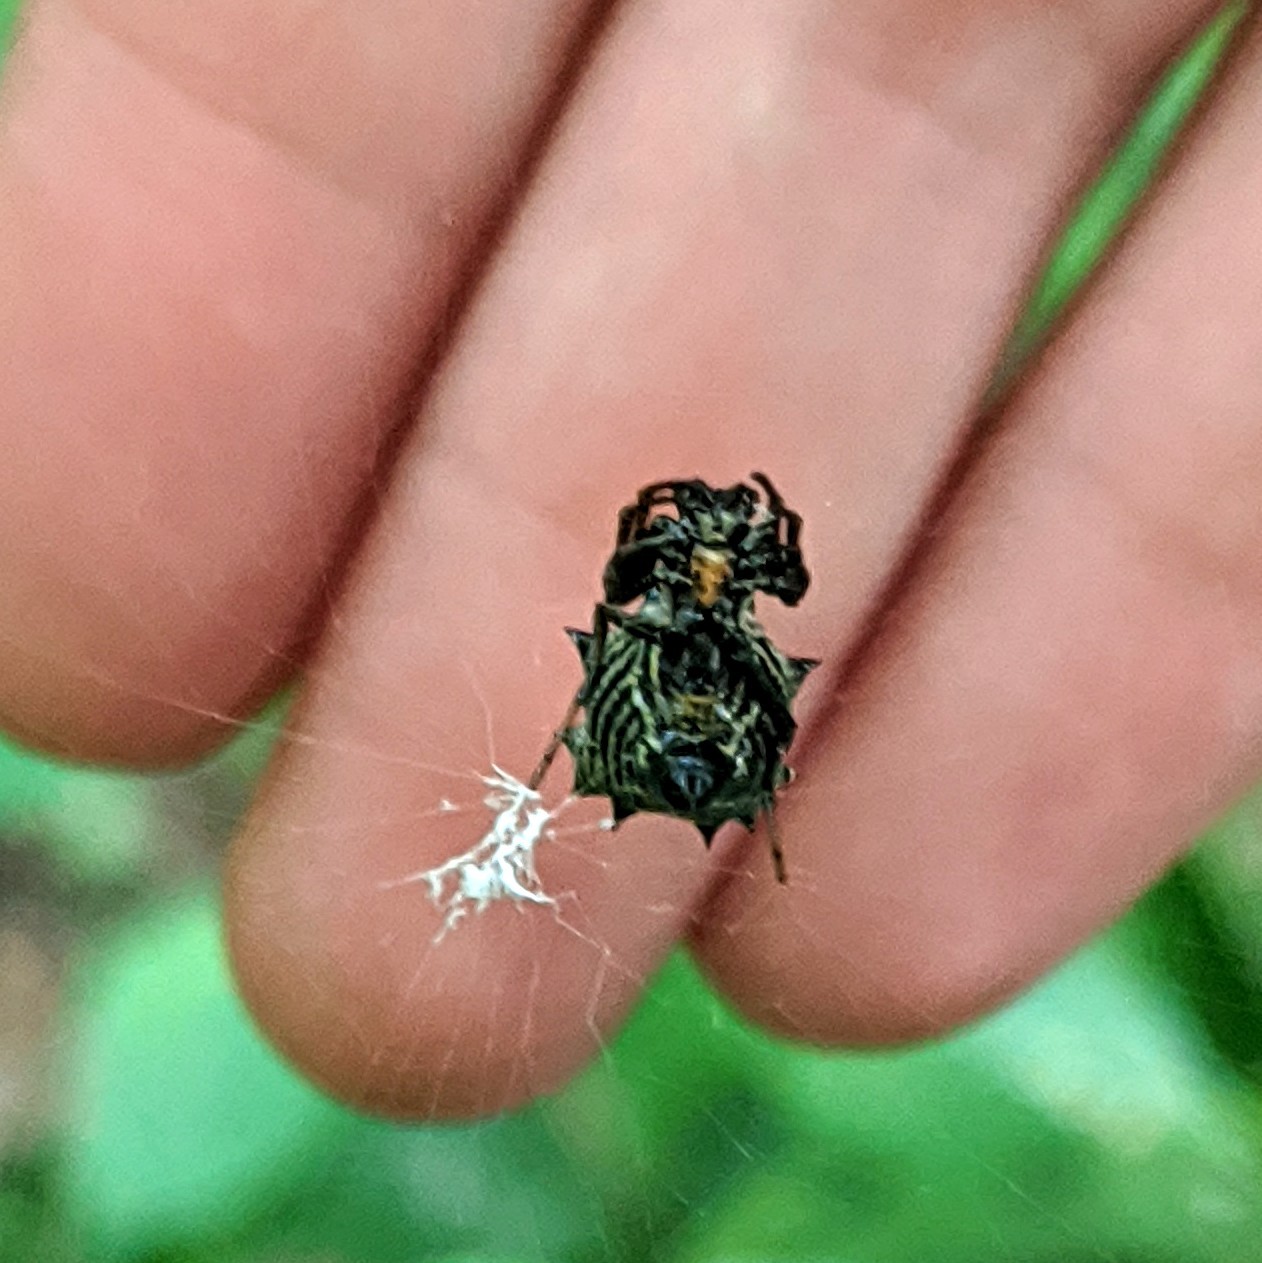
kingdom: Animalia
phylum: Arthropoda
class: Arachnida
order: Araneae
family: Araneidae
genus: Micrathena
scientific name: Micrathena gracilis
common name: Orb weavers
